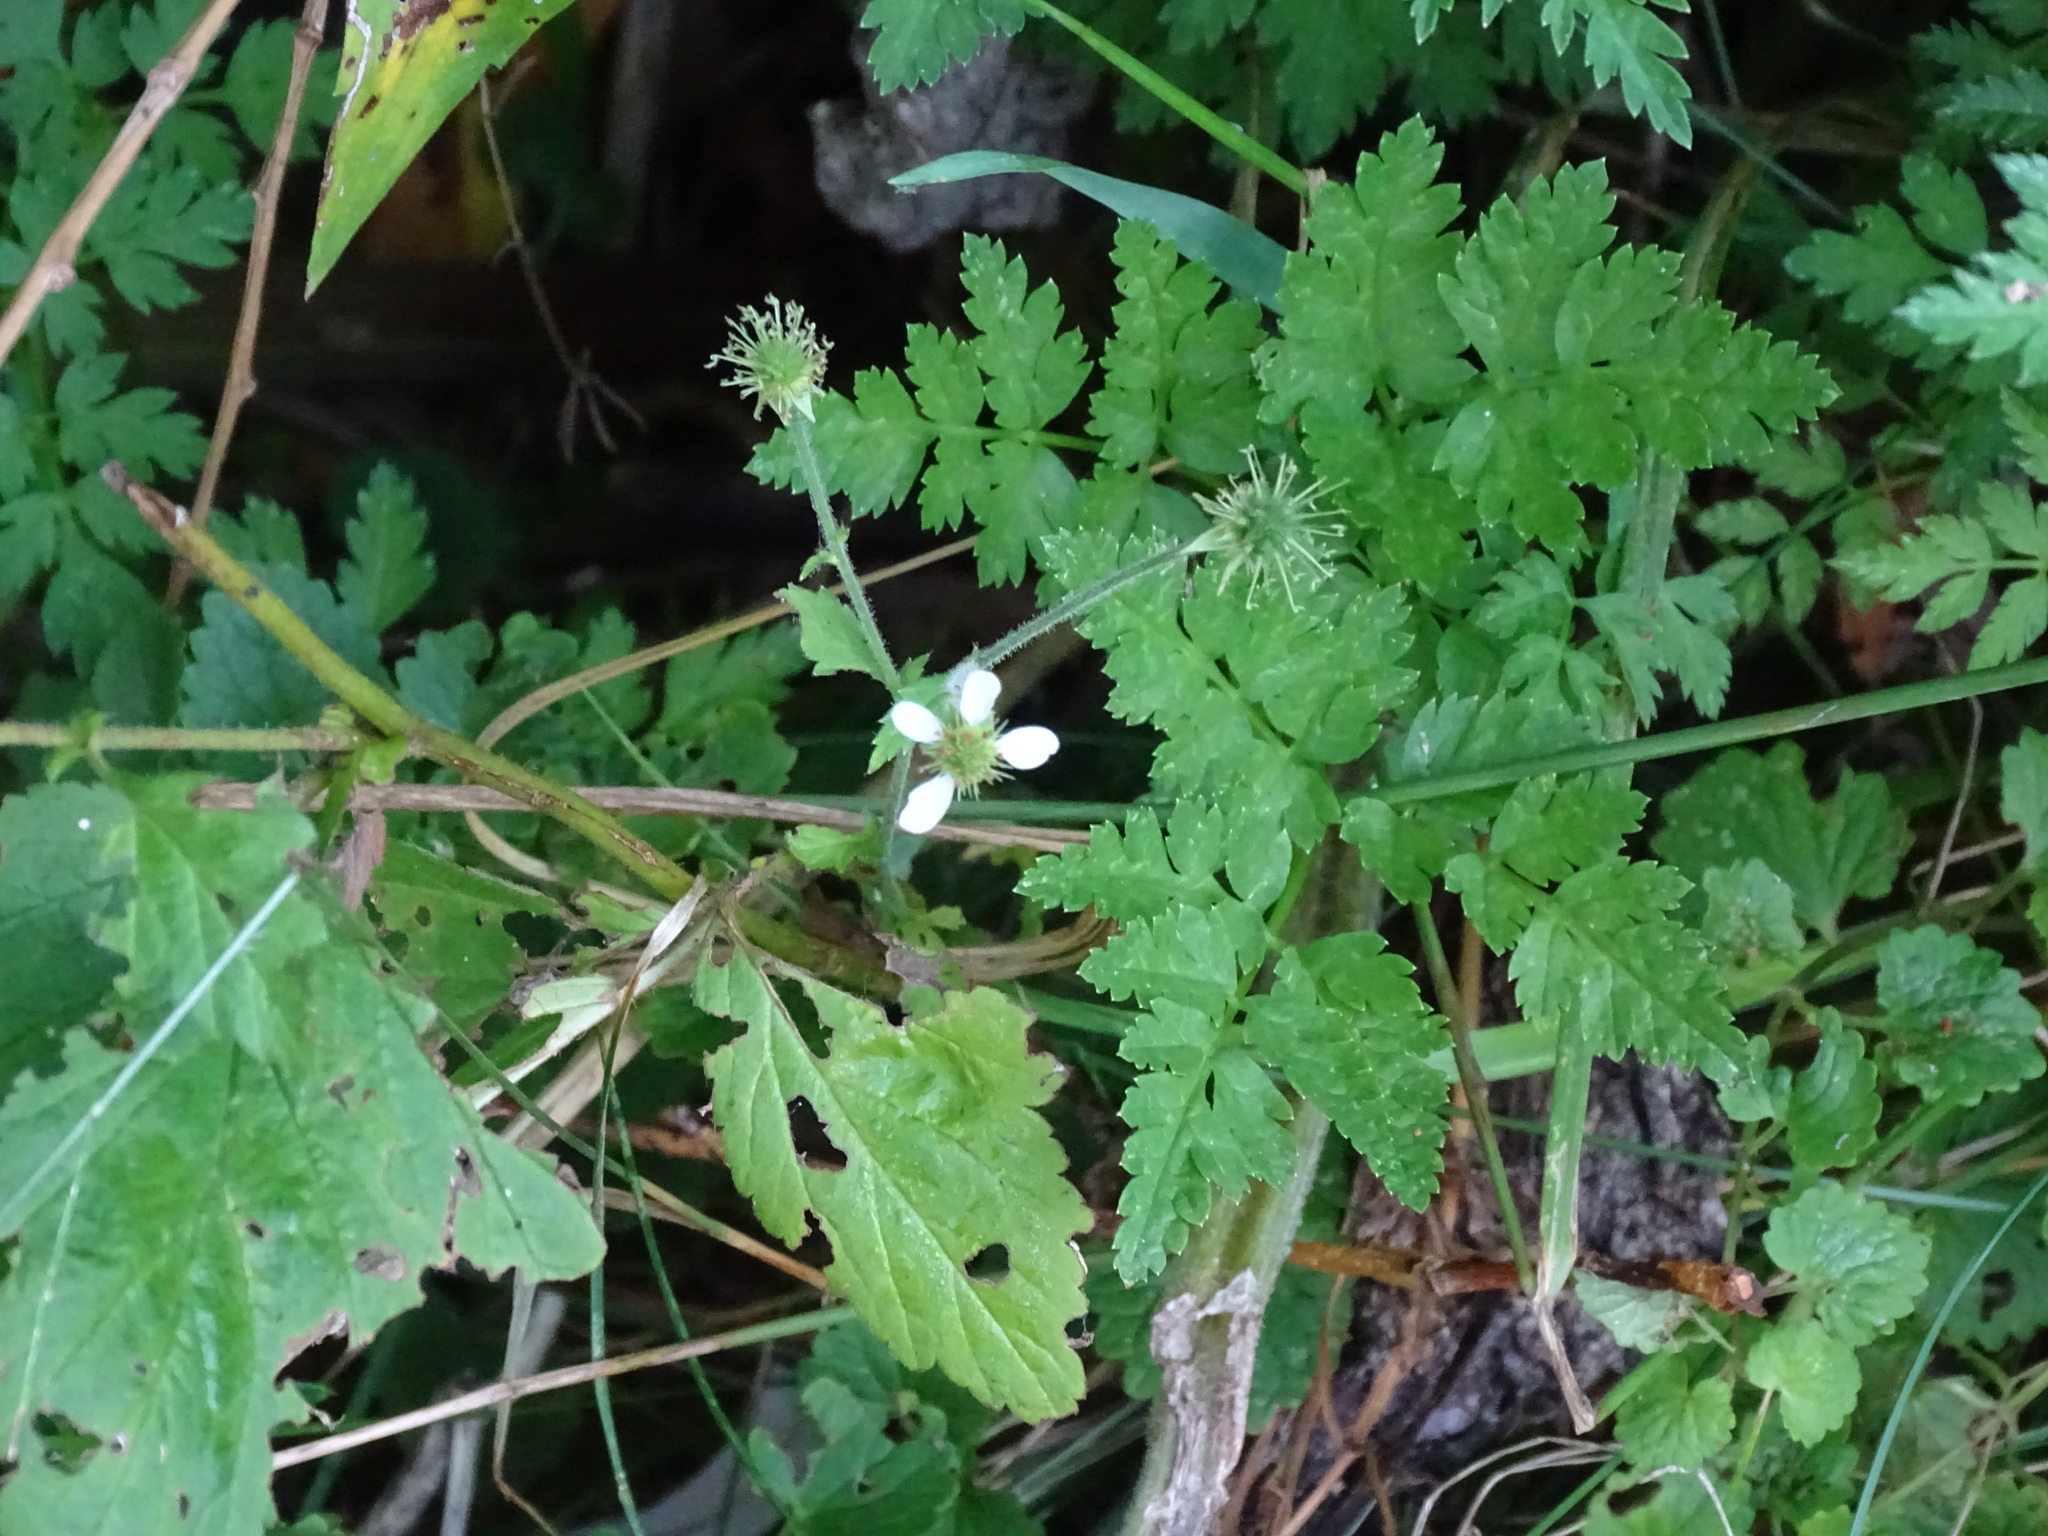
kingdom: Plantae
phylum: Tracheophyta
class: Magnoliopsida
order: Rosales
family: Rosaceae
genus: Geum
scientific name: Geum canadense
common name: White avens
